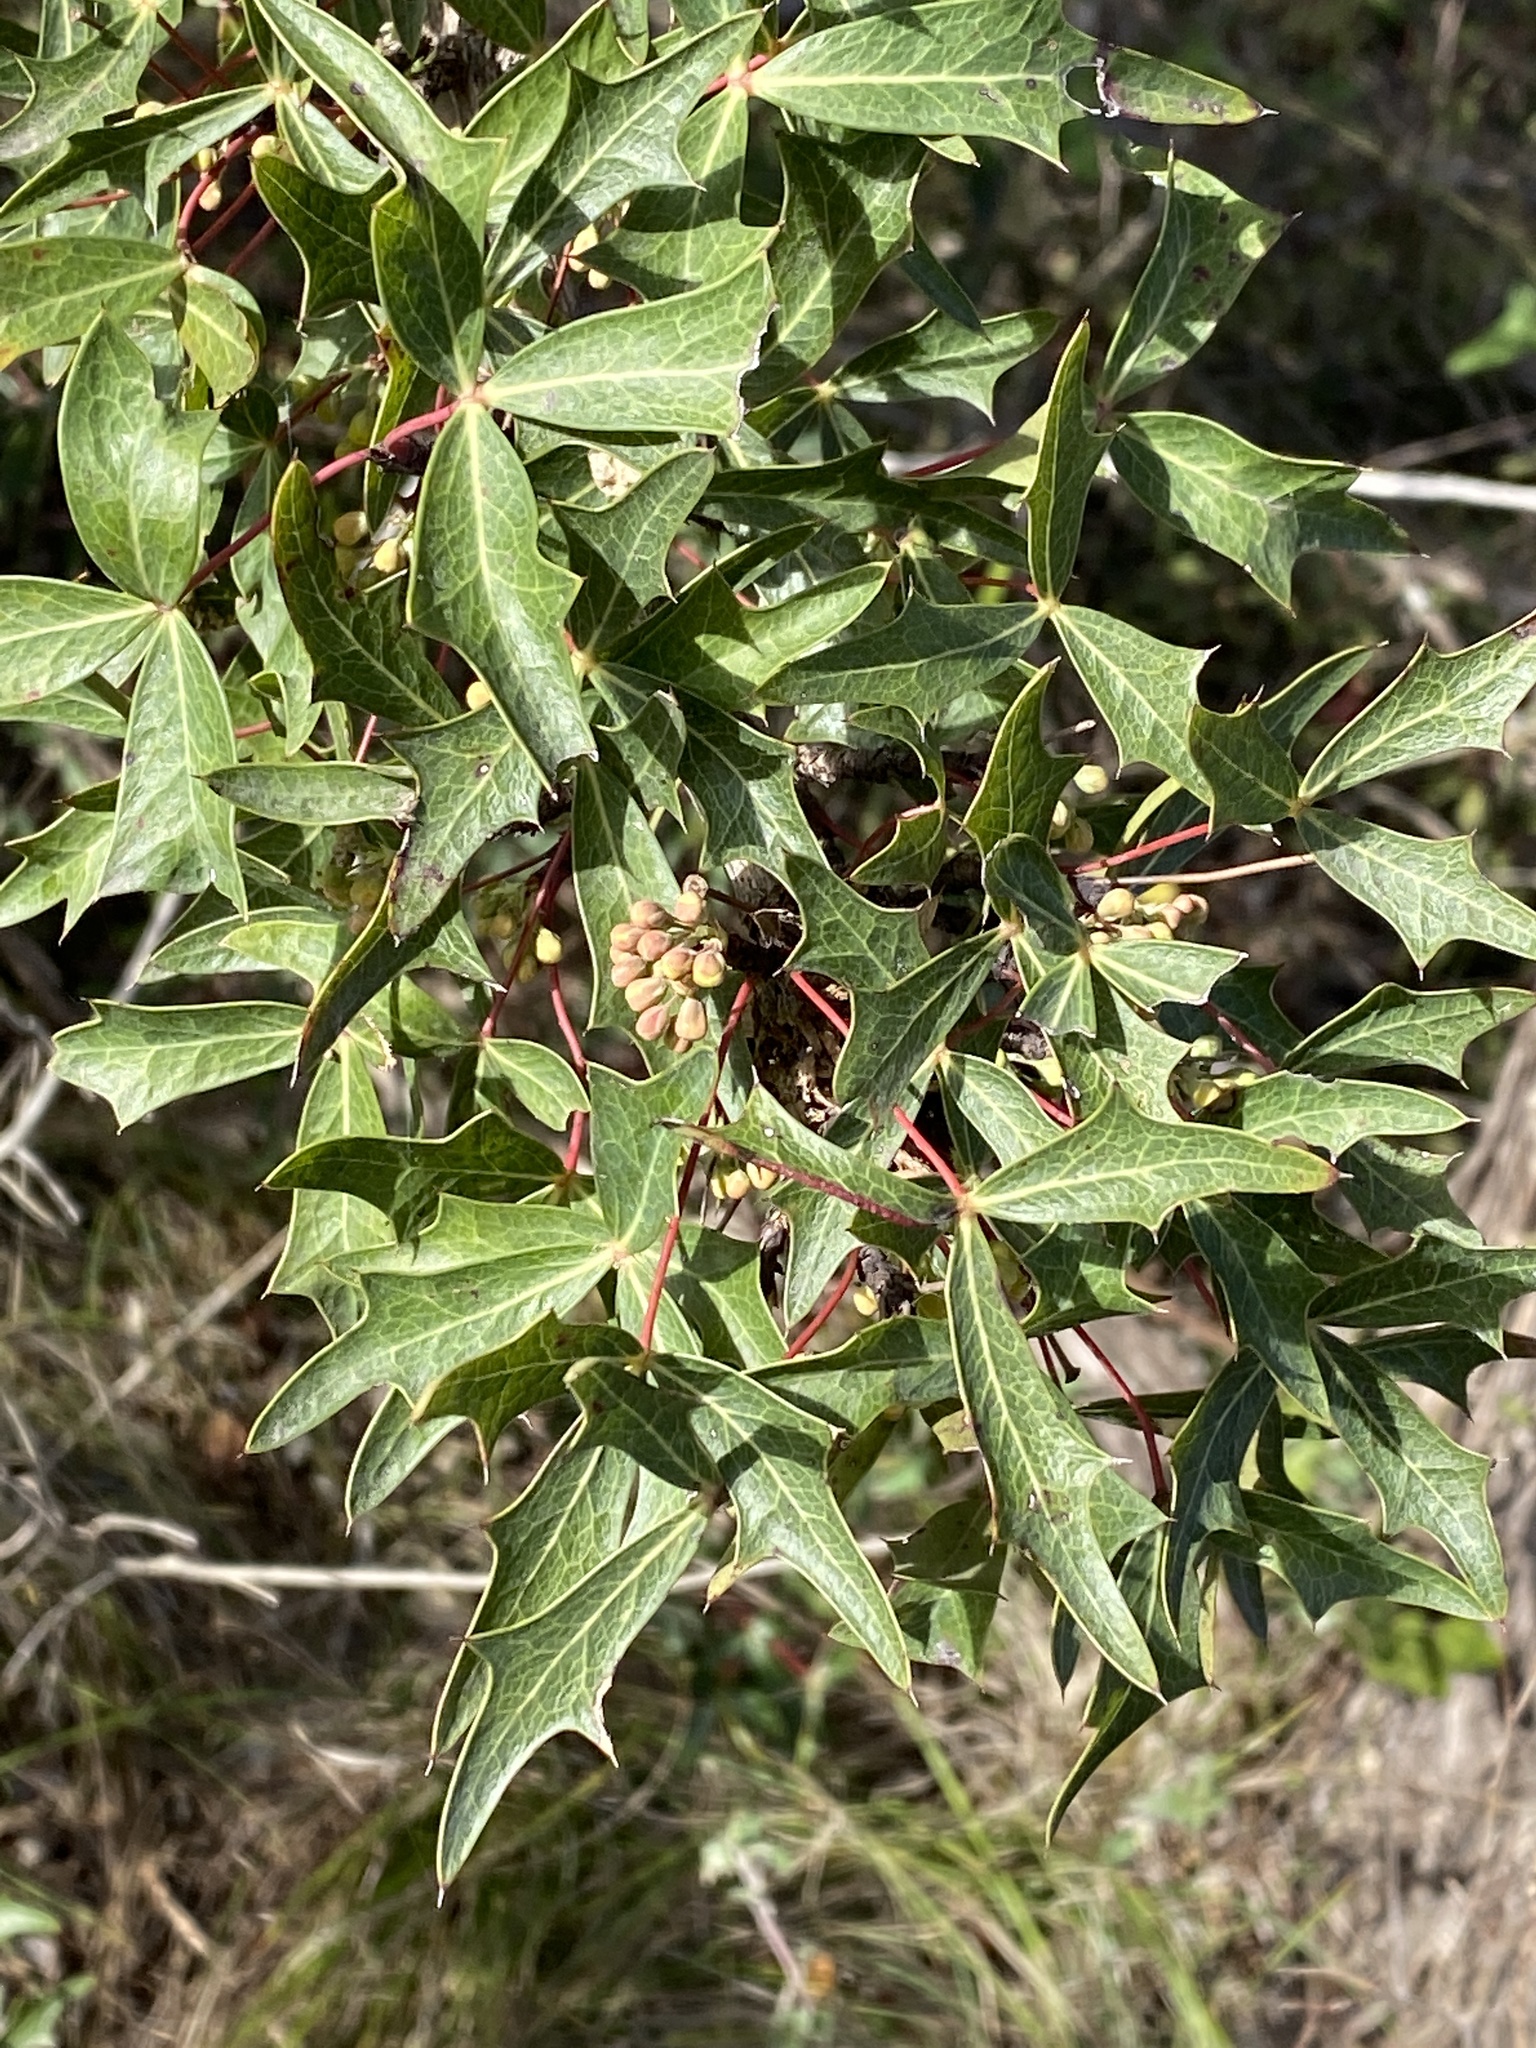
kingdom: Plantae
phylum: Tracheophyta
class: Magnoliopsida
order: Ranunculales
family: Berberidaceae
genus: Alloberberis
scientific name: Alloberberis trifoliolata
